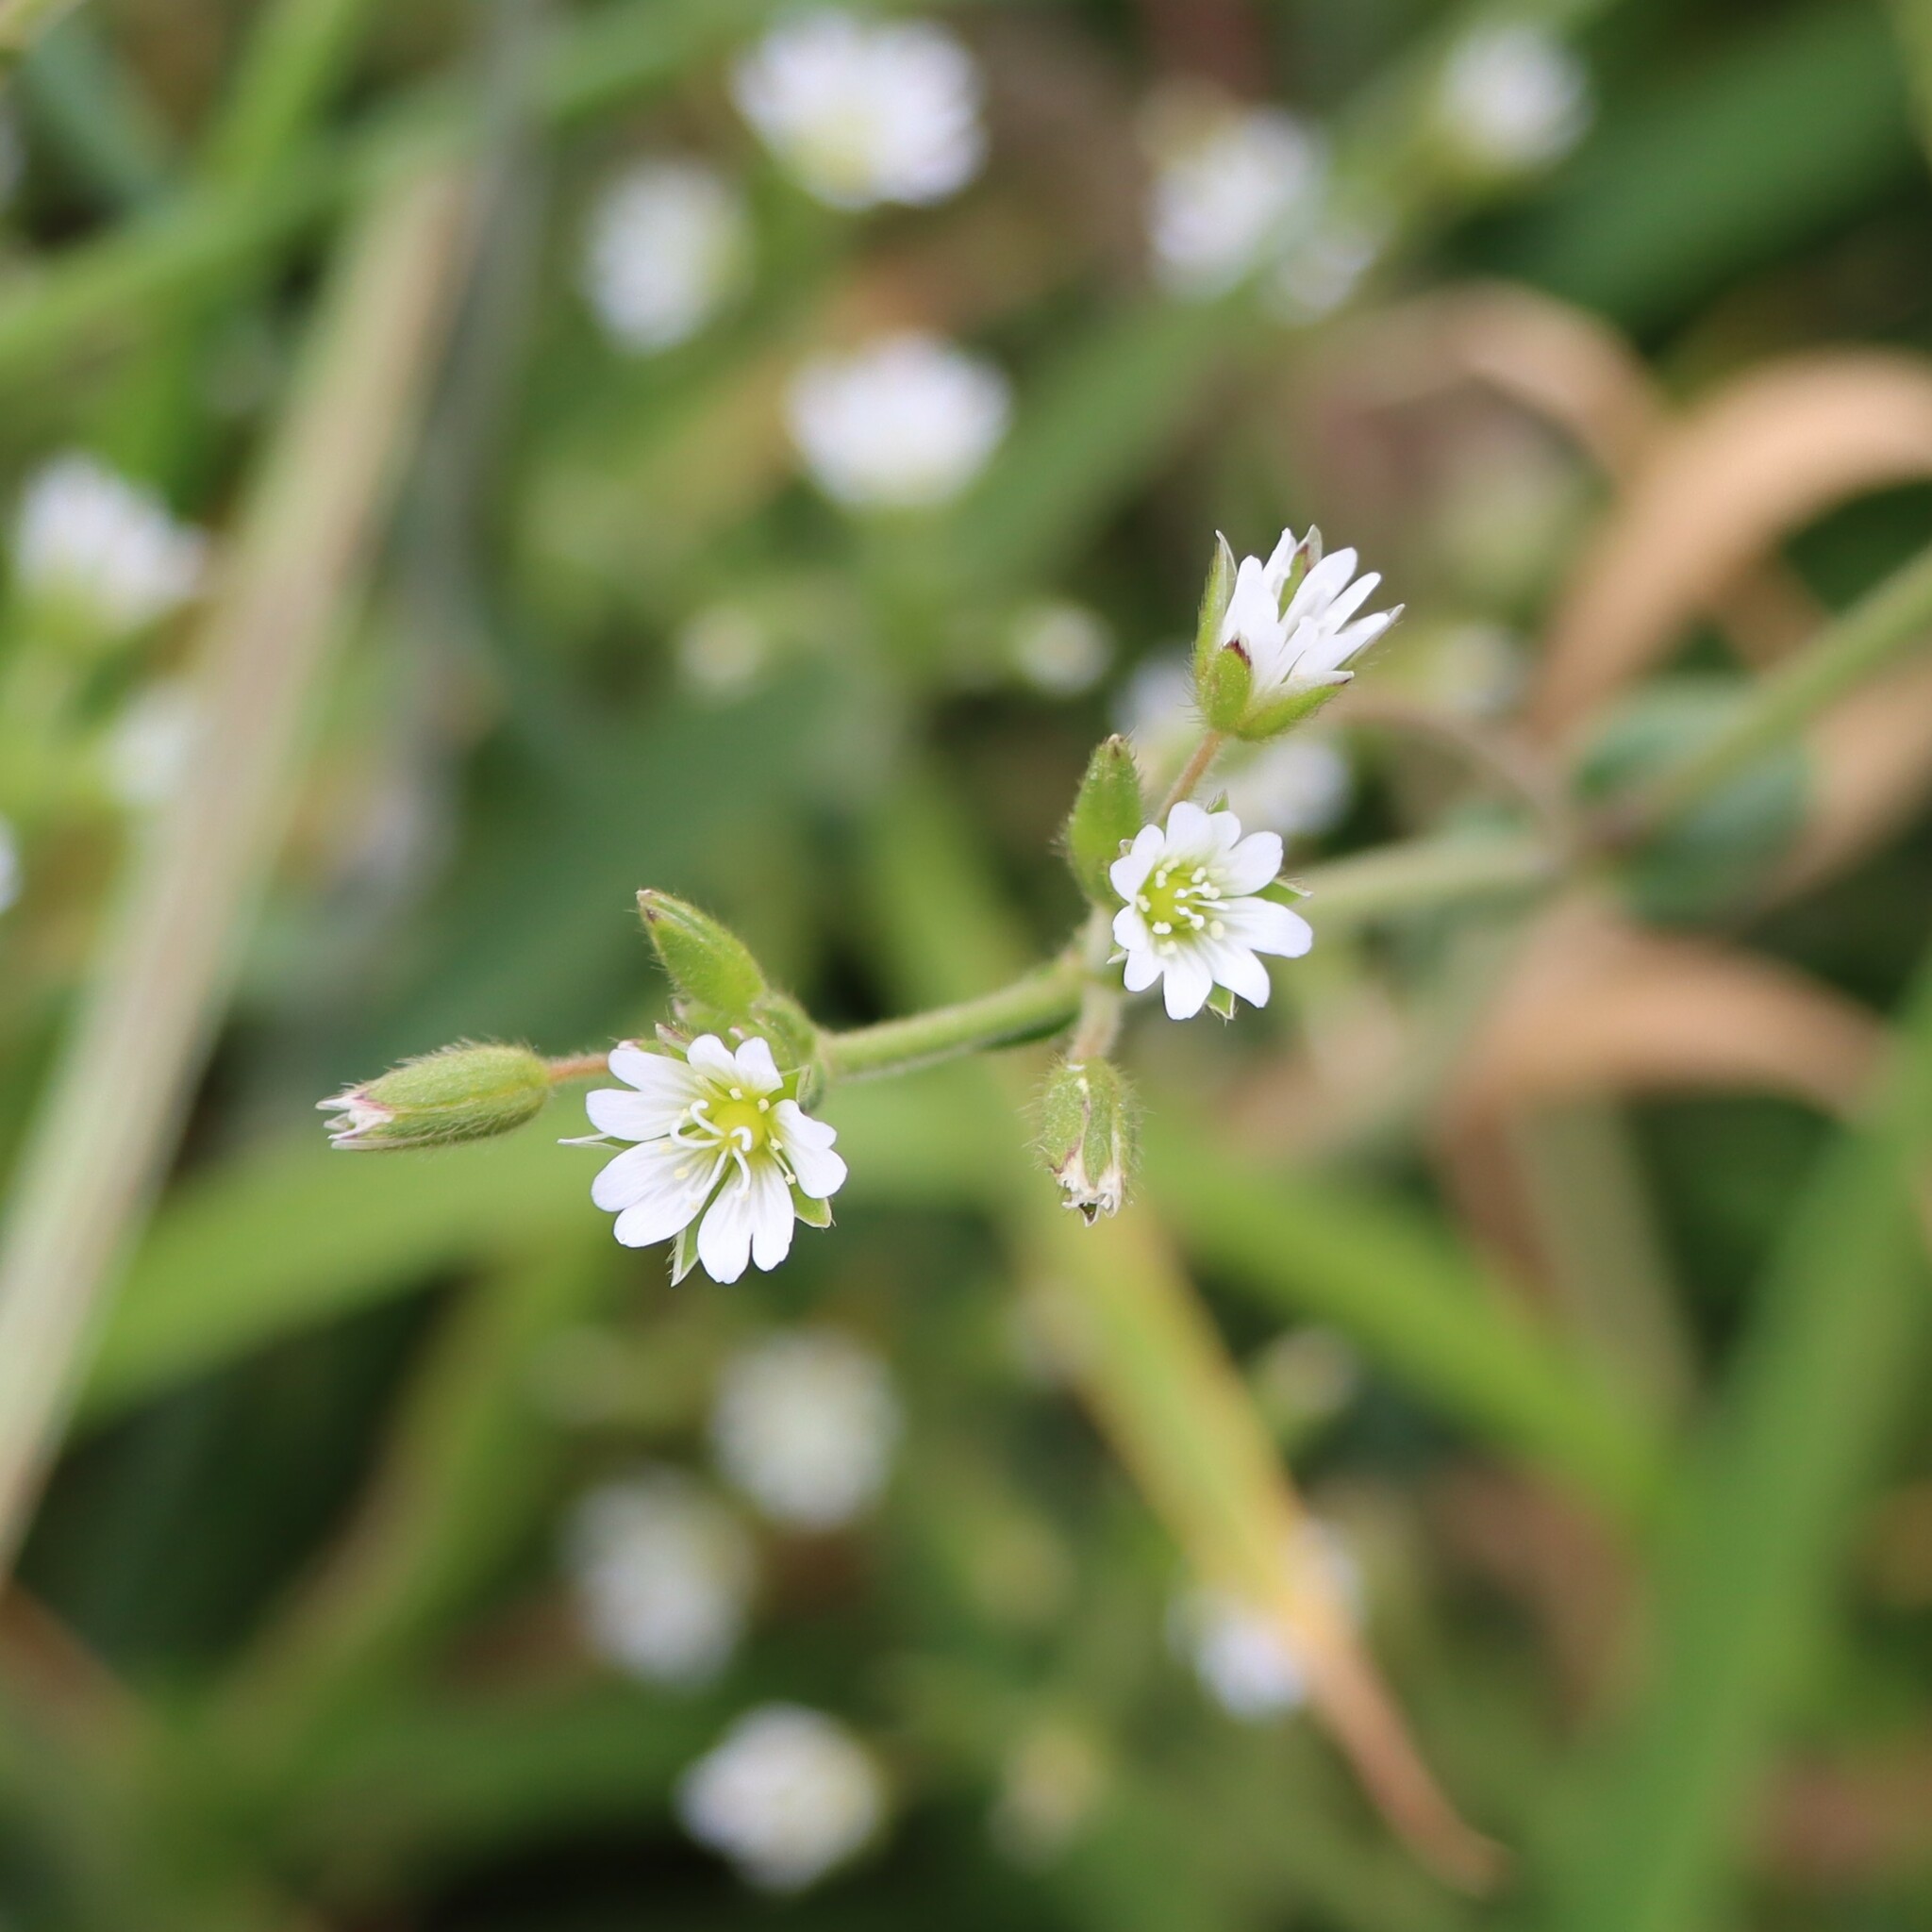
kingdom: Plantae
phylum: Tracheophyta
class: Magnoliopsida
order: Caryophyllales
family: Caryophyllaceae
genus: Cerastium
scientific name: Cerastium fontanum
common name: Common mouse-ear
